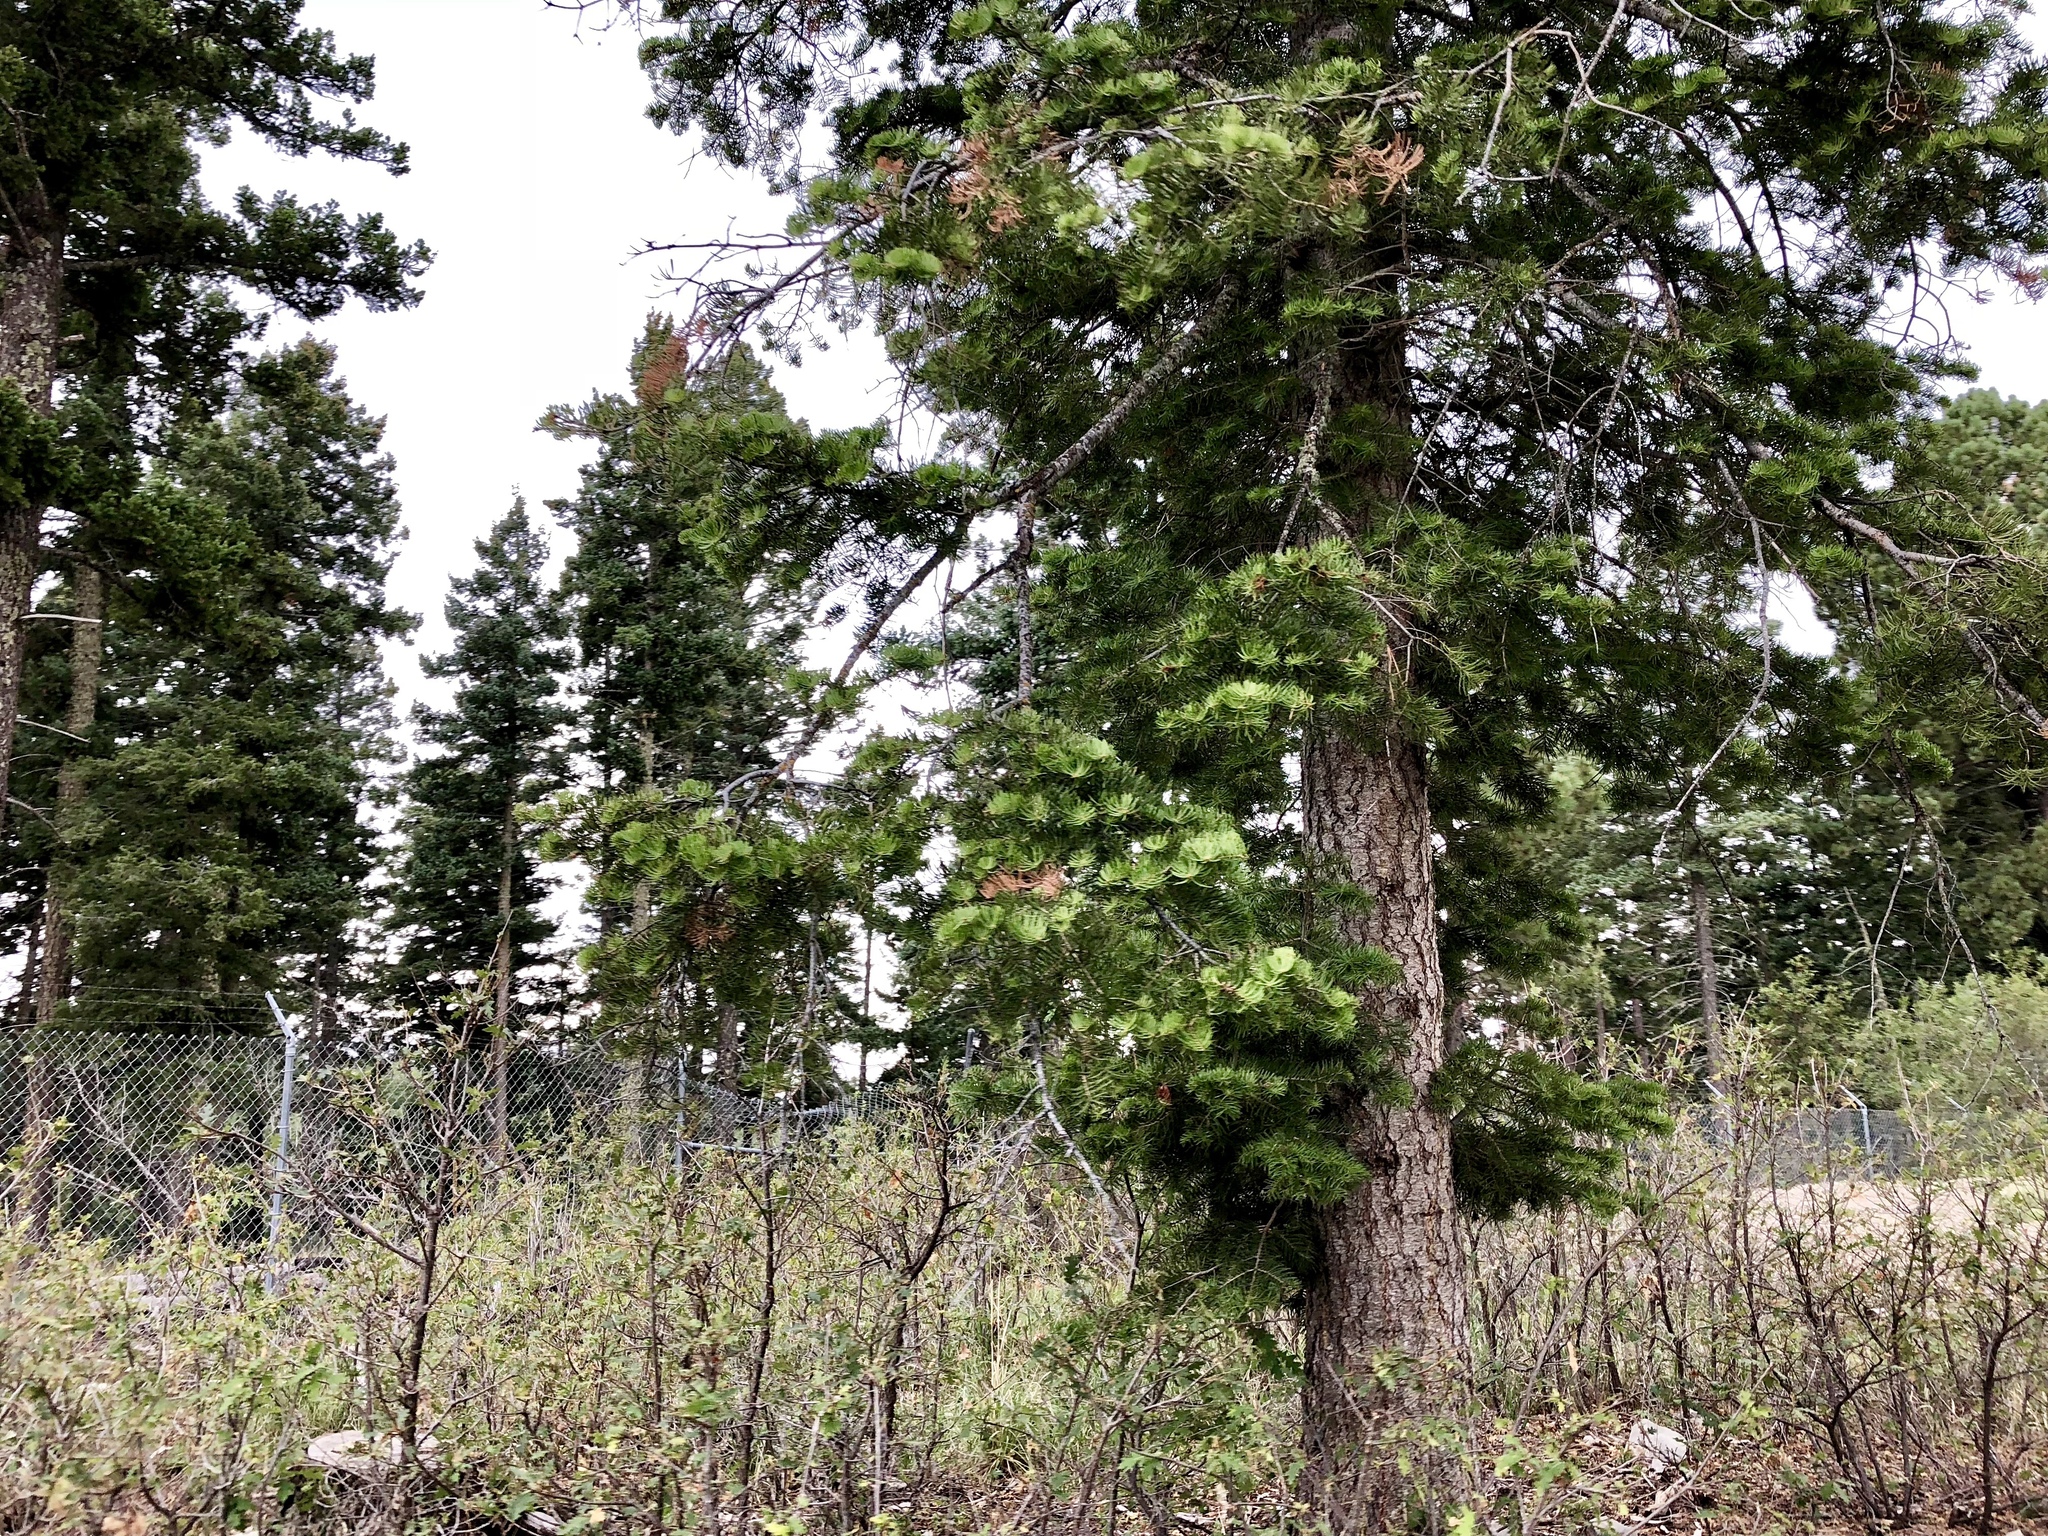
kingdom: Plantae
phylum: Tracheophyta
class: Pinopsida
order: Pinales
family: Pinaceae
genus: Abies
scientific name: Abies concolor
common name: Colorado fir
